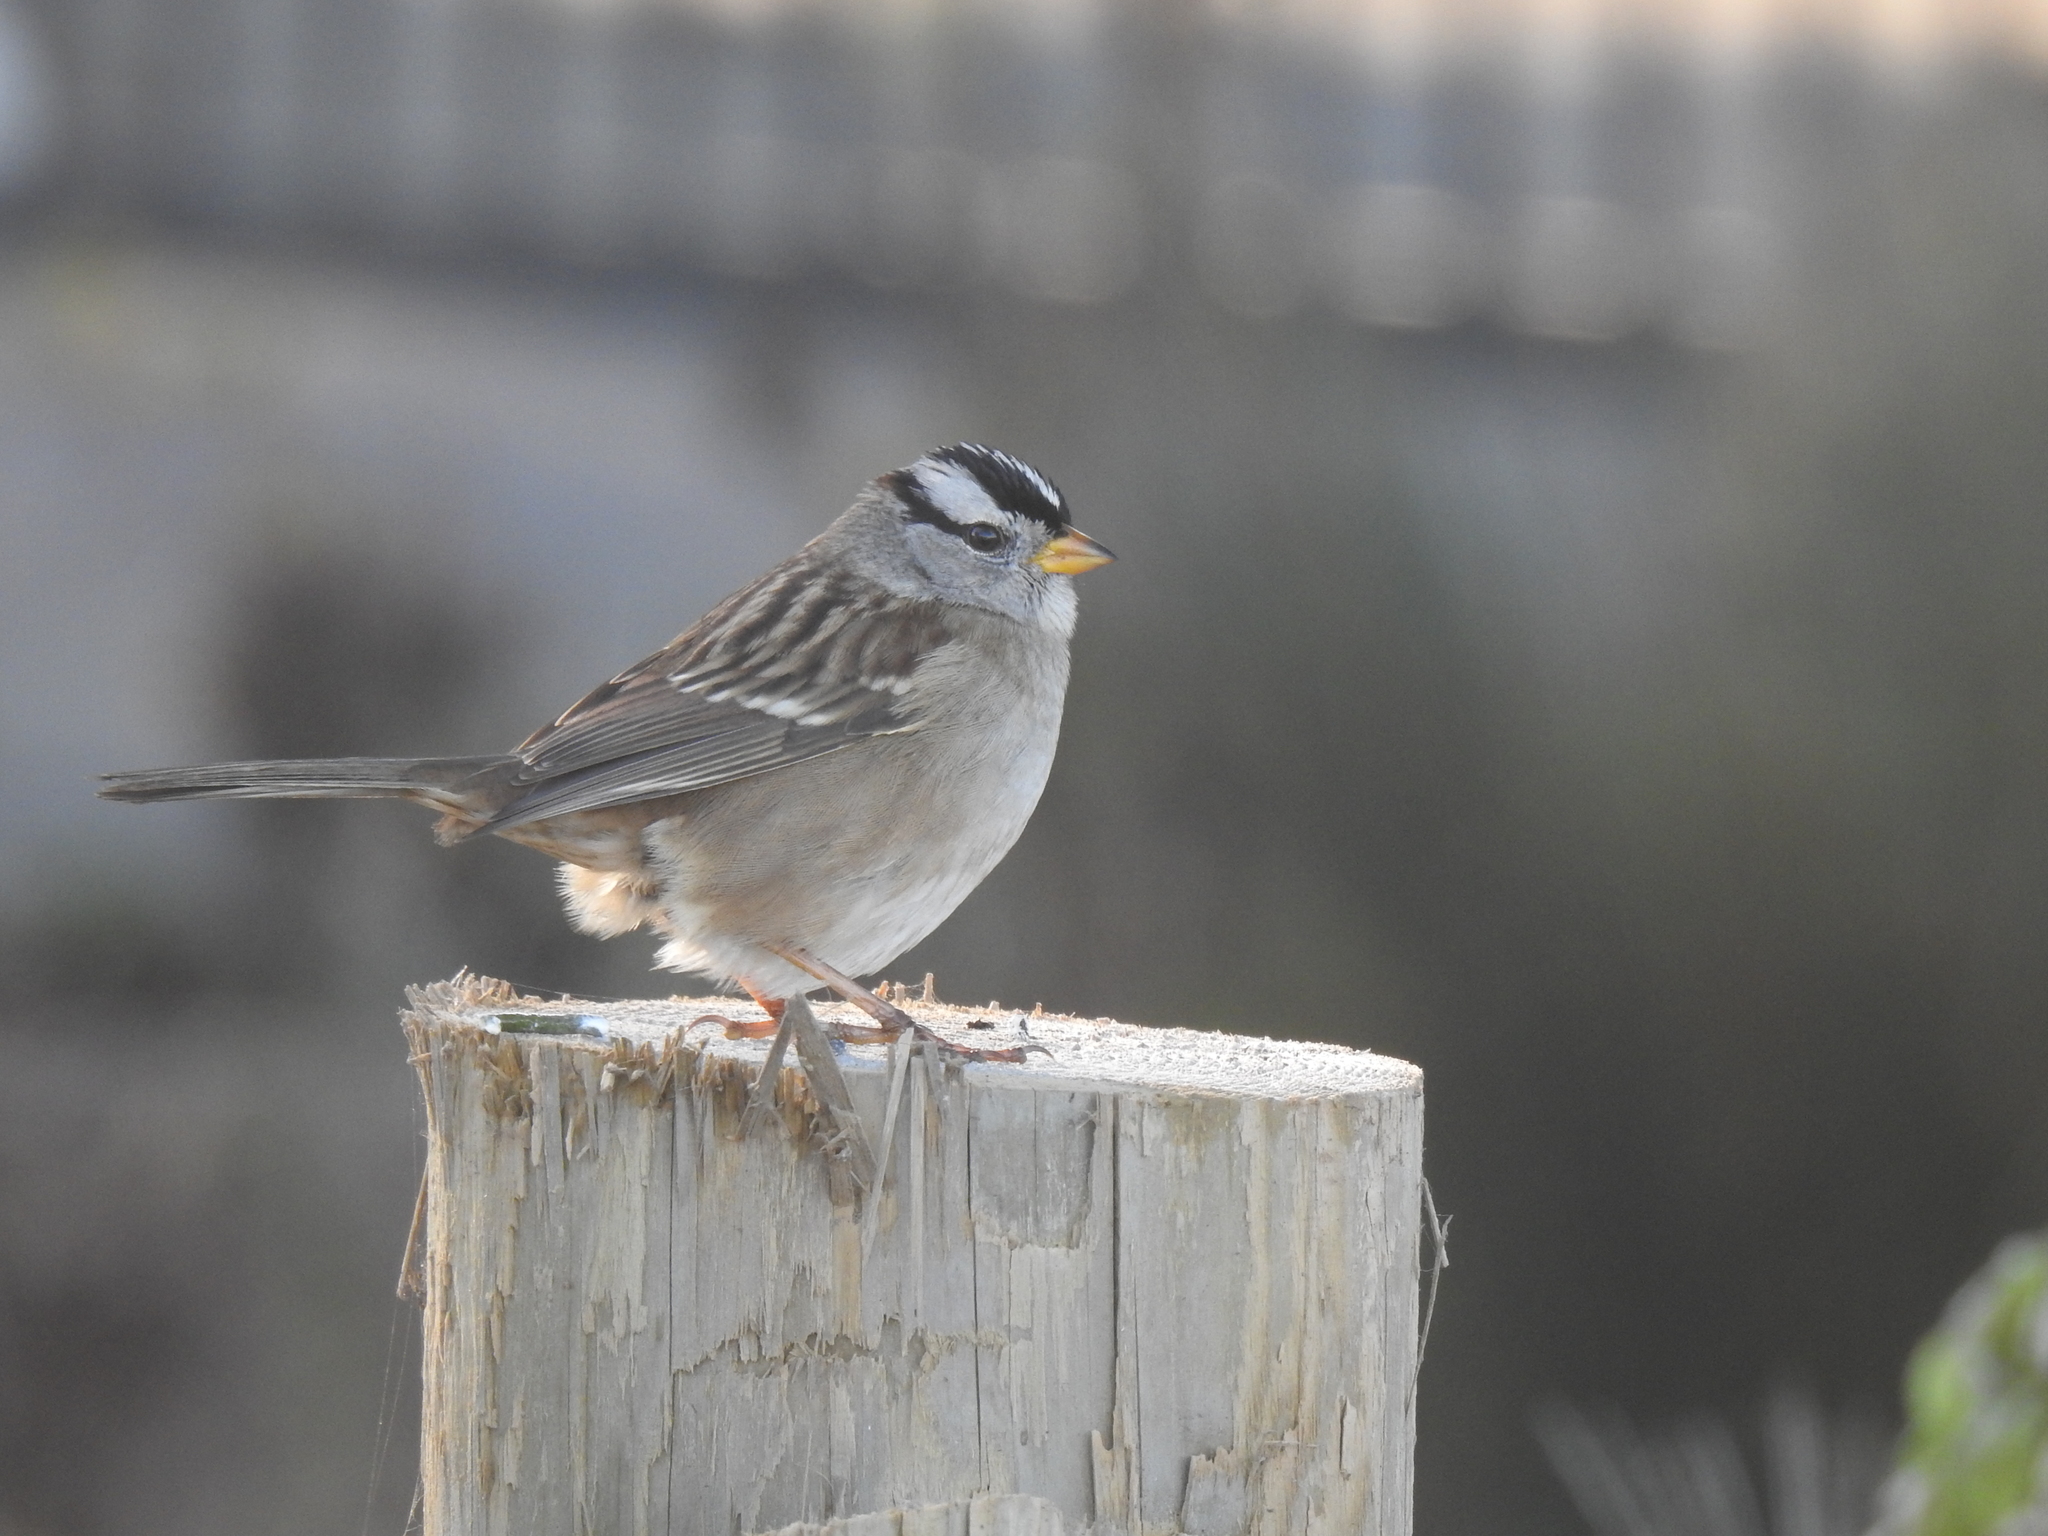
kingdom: Animalia
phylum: Chordata
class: Aves
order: Passeriformes
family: Passerellidae
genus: Zonotrichia
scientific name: Zonotrichia leucophrys
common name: White-crowned sparrow
